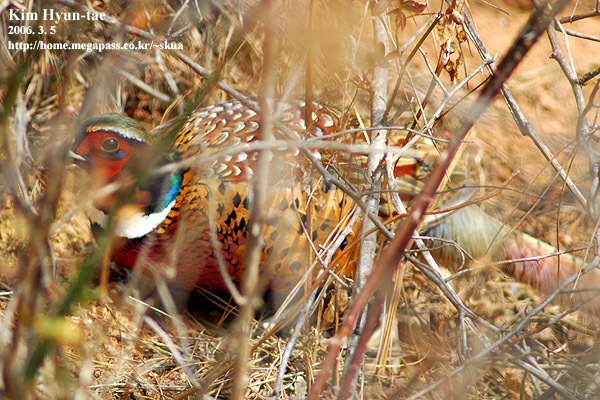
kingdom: Animalia
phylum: Chordata
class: Aves
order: Galliformes
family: Phasianidae
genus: Phasianus
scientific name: Phasianus colchicus
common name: Common pheasant
